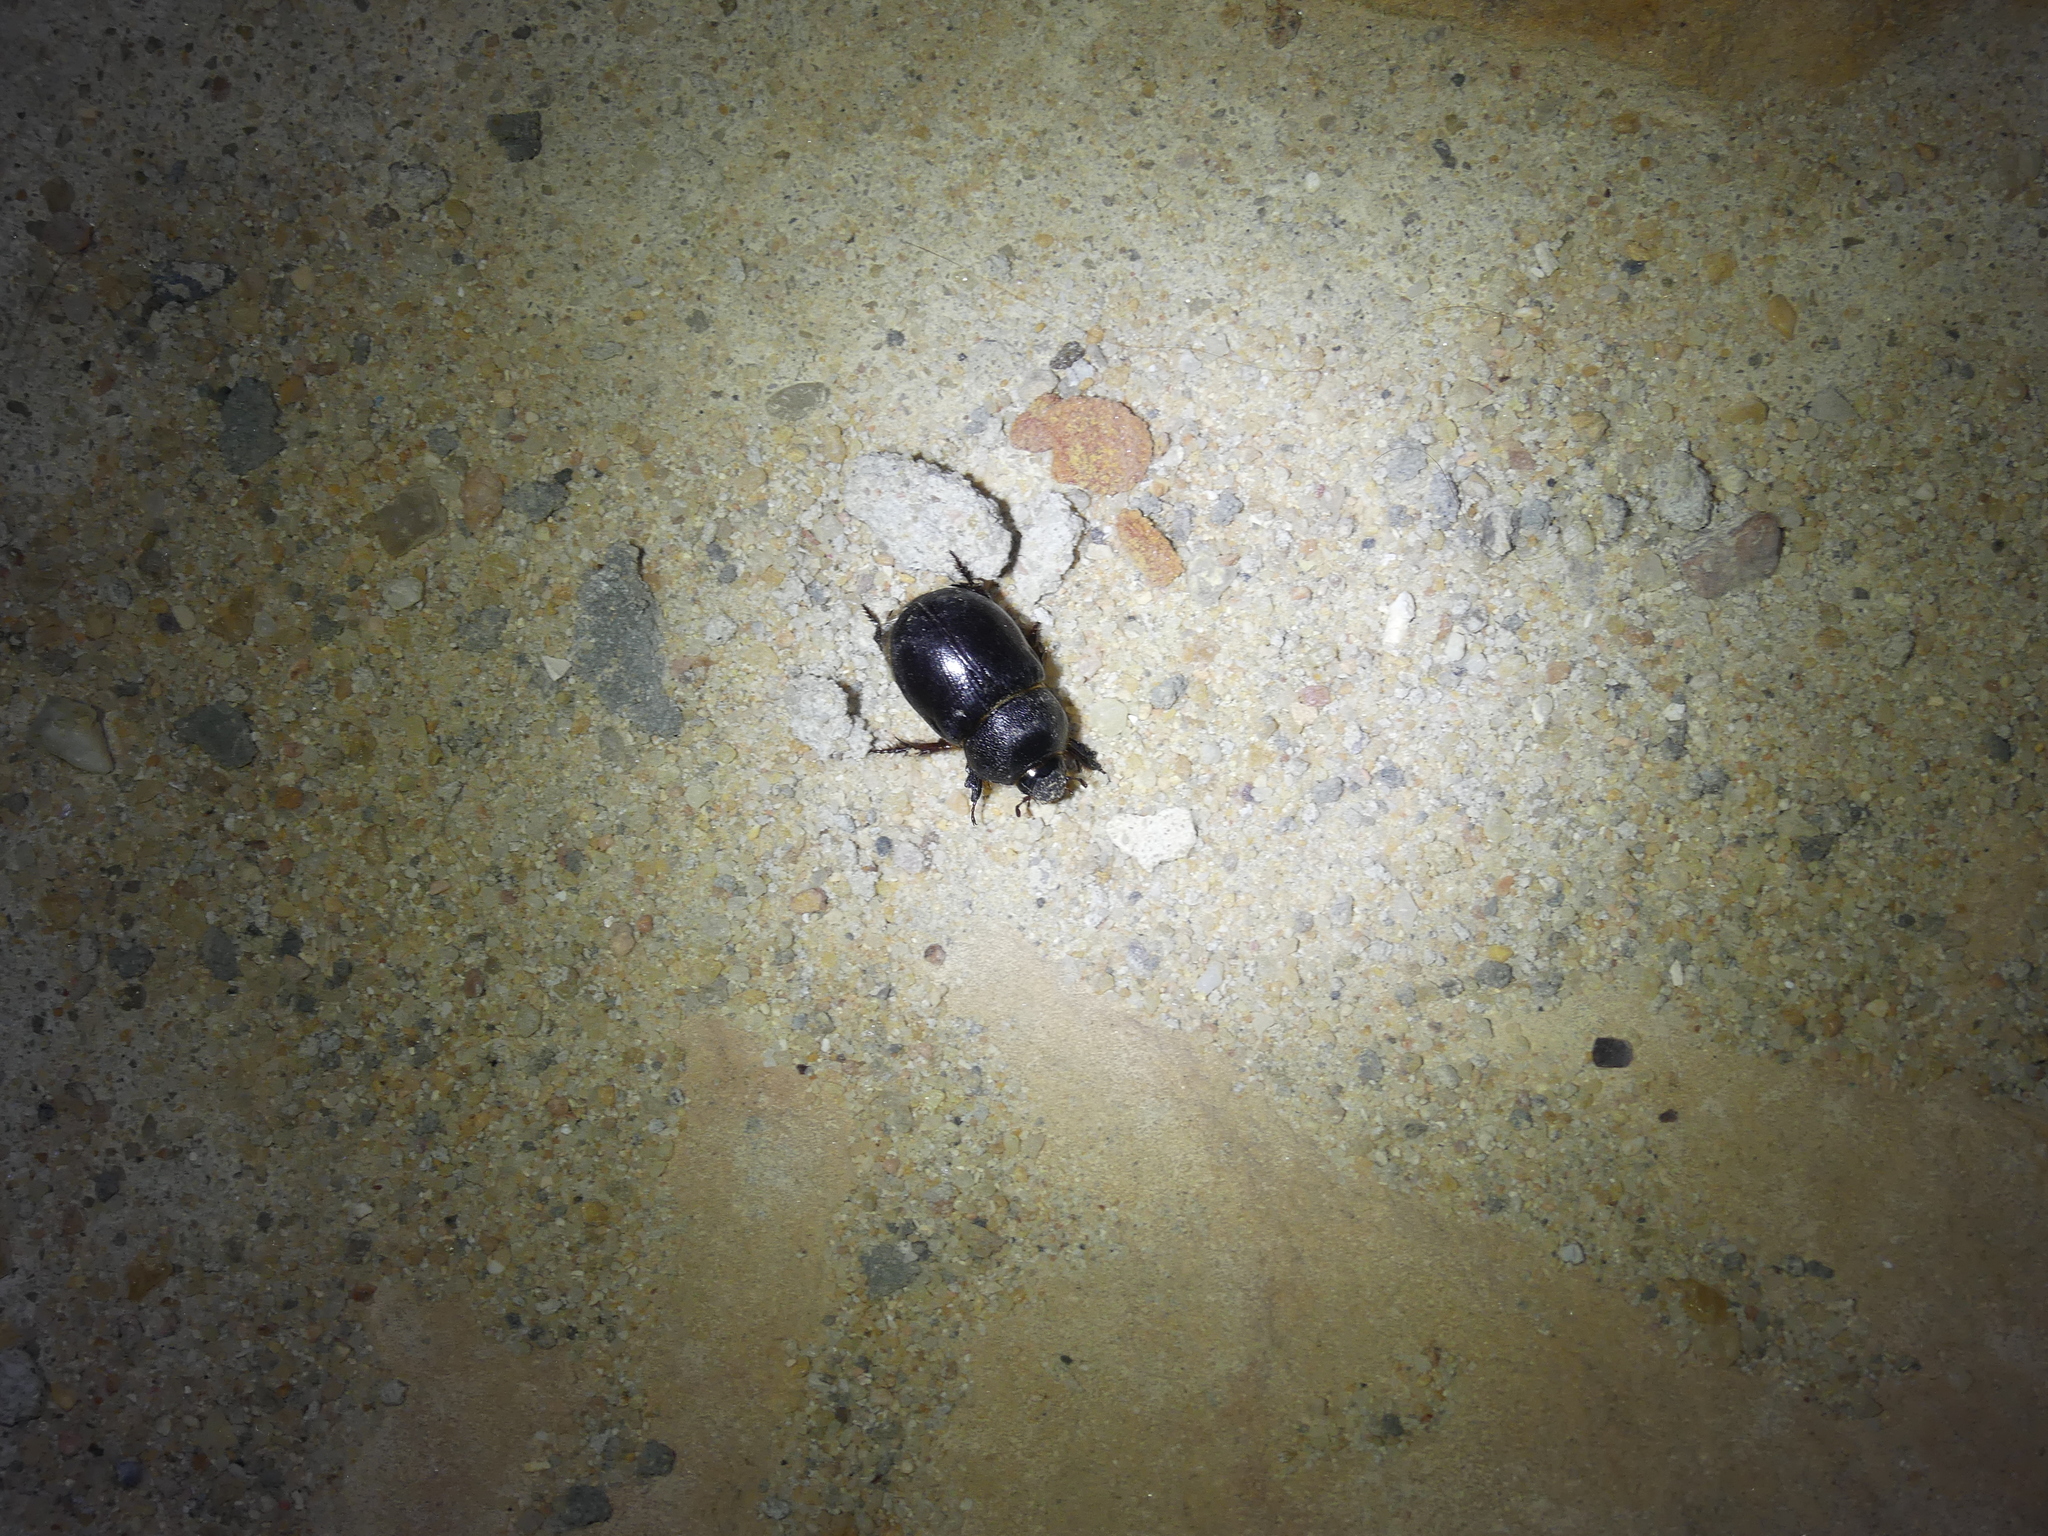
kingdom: Animalia
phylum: Arthropoda
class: Insecta
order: Coleoptera
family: Scarabaeidae
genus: Temnorhynchus
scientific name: Temnorhynchus baal
